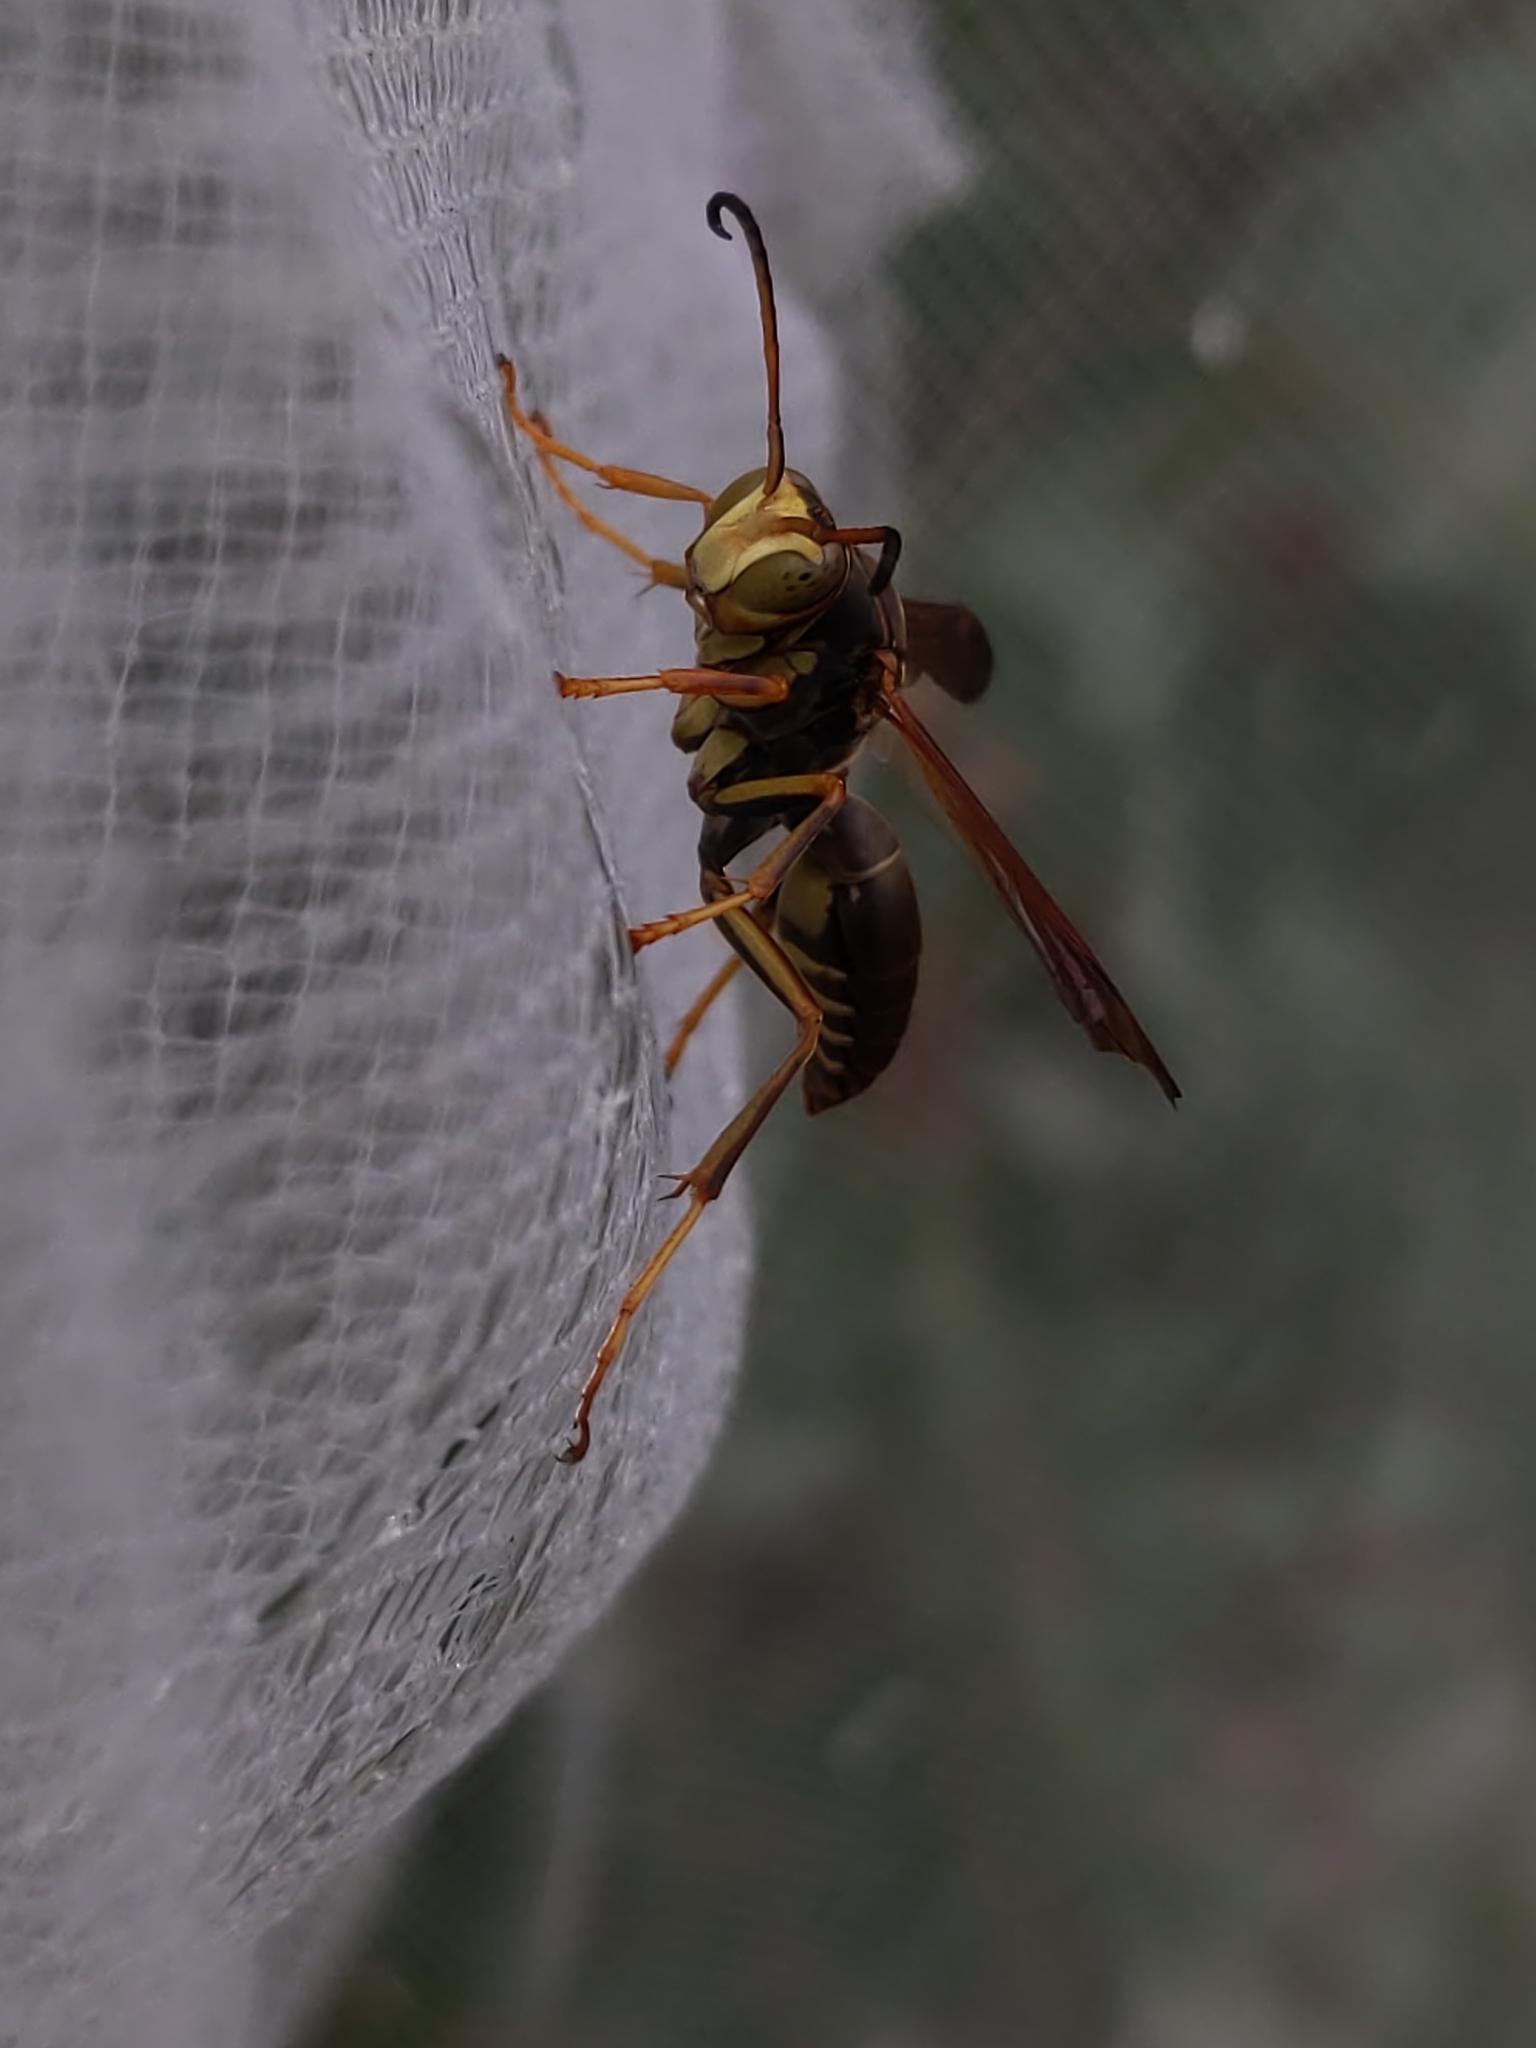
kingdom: Animalia
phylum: Arthropoda
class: Insecta
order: Hymenoptera
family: Eumenidae
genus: Polistes
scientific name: Polistes fuscatus
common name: Dark paper wasp
